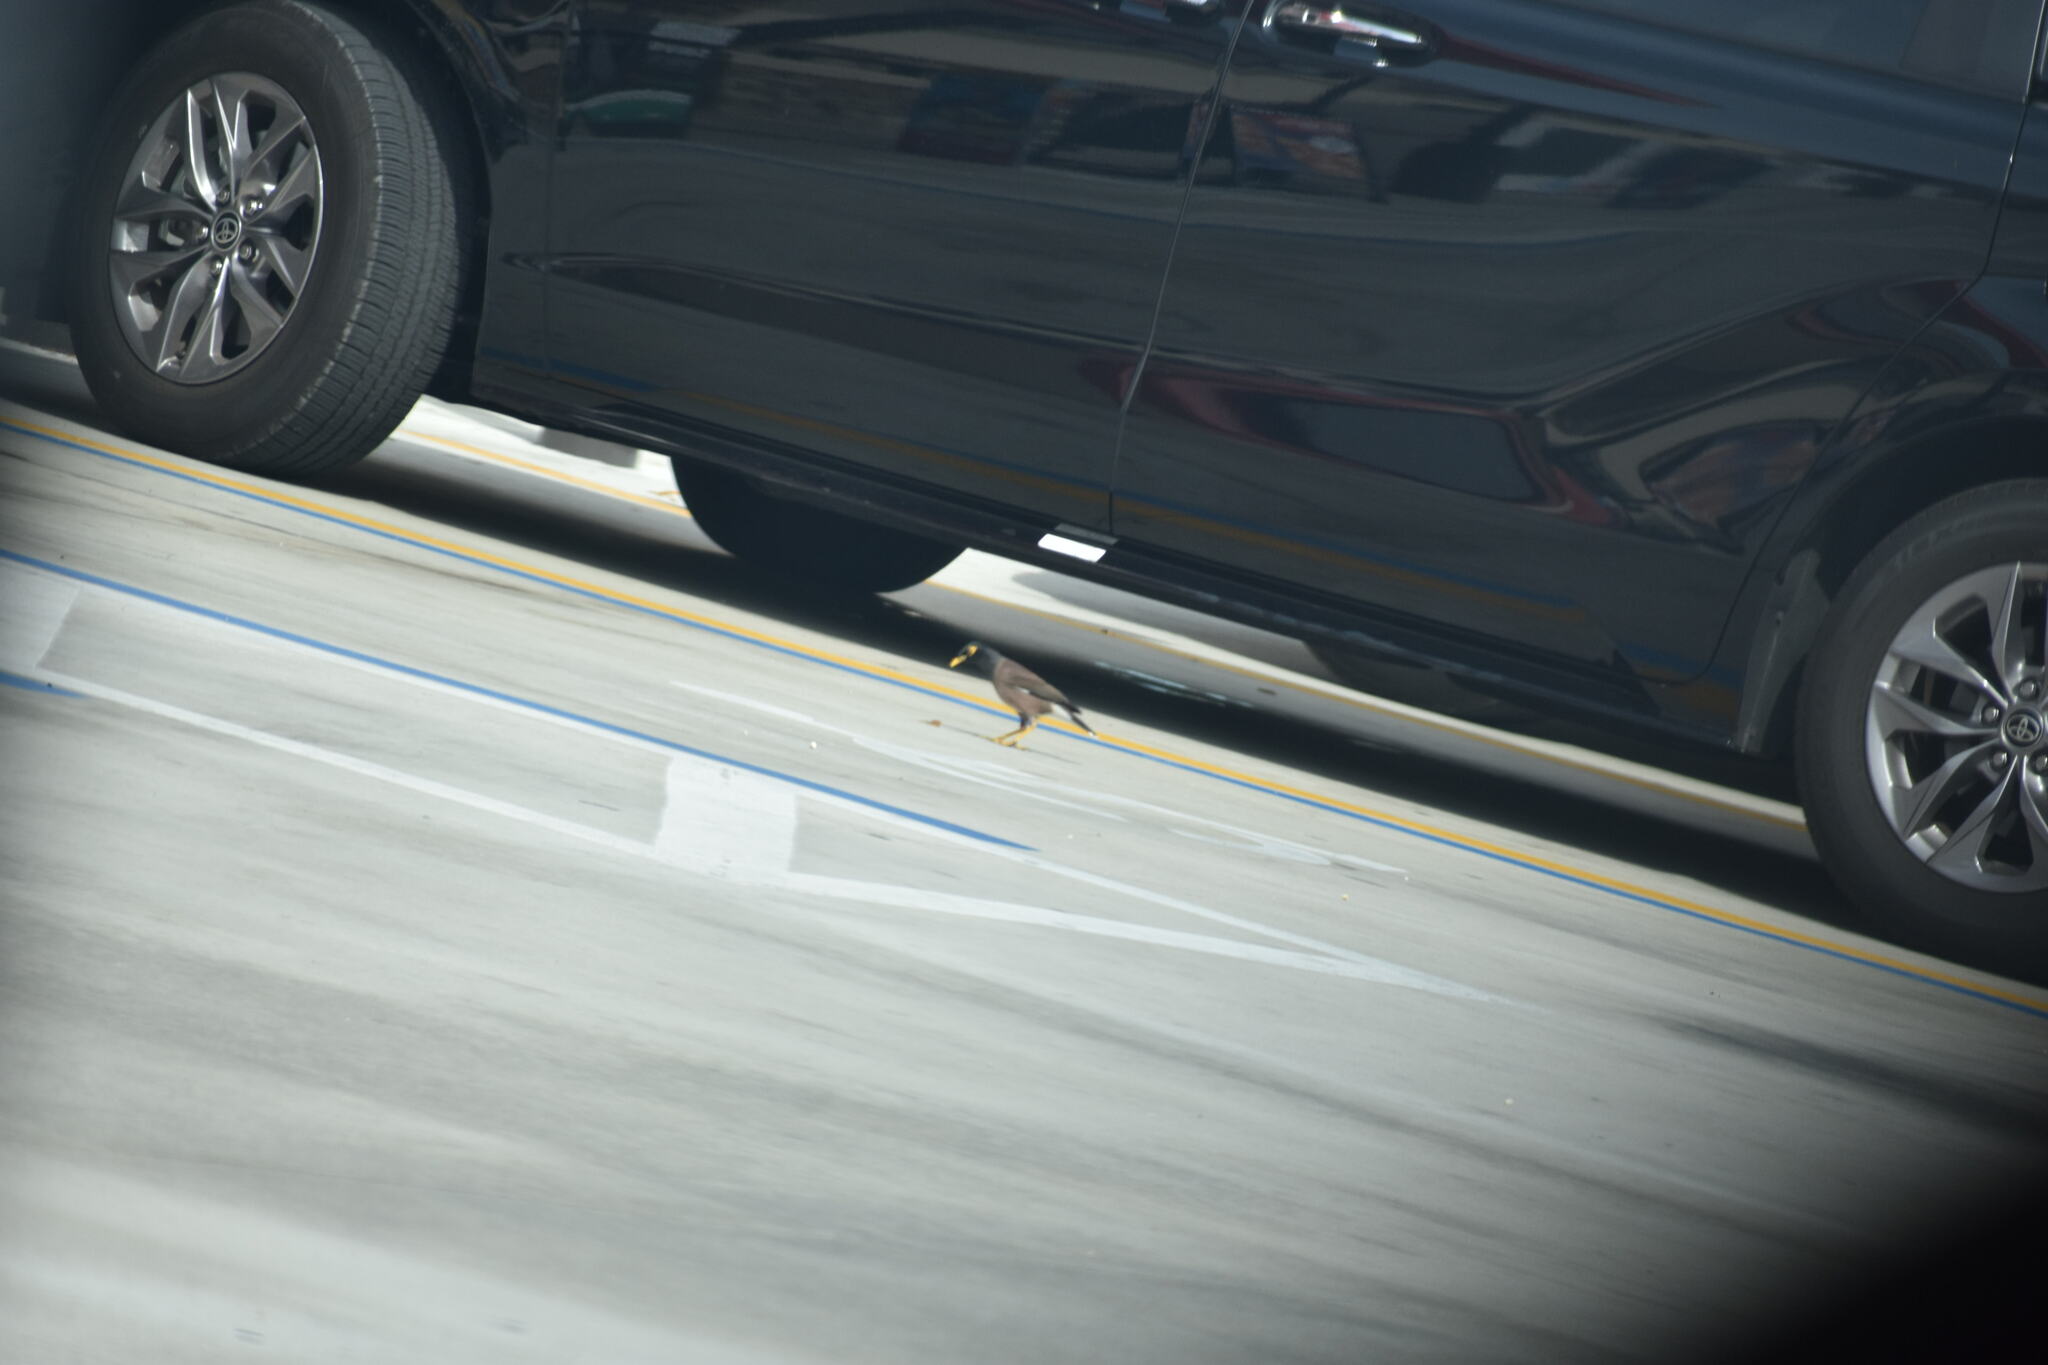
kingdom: Animalia
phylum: Chordata
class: Aves
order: Passeriformes
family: Sturnidae
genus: Acridotheres
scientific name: Acridotheres tristis
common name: Common myna
